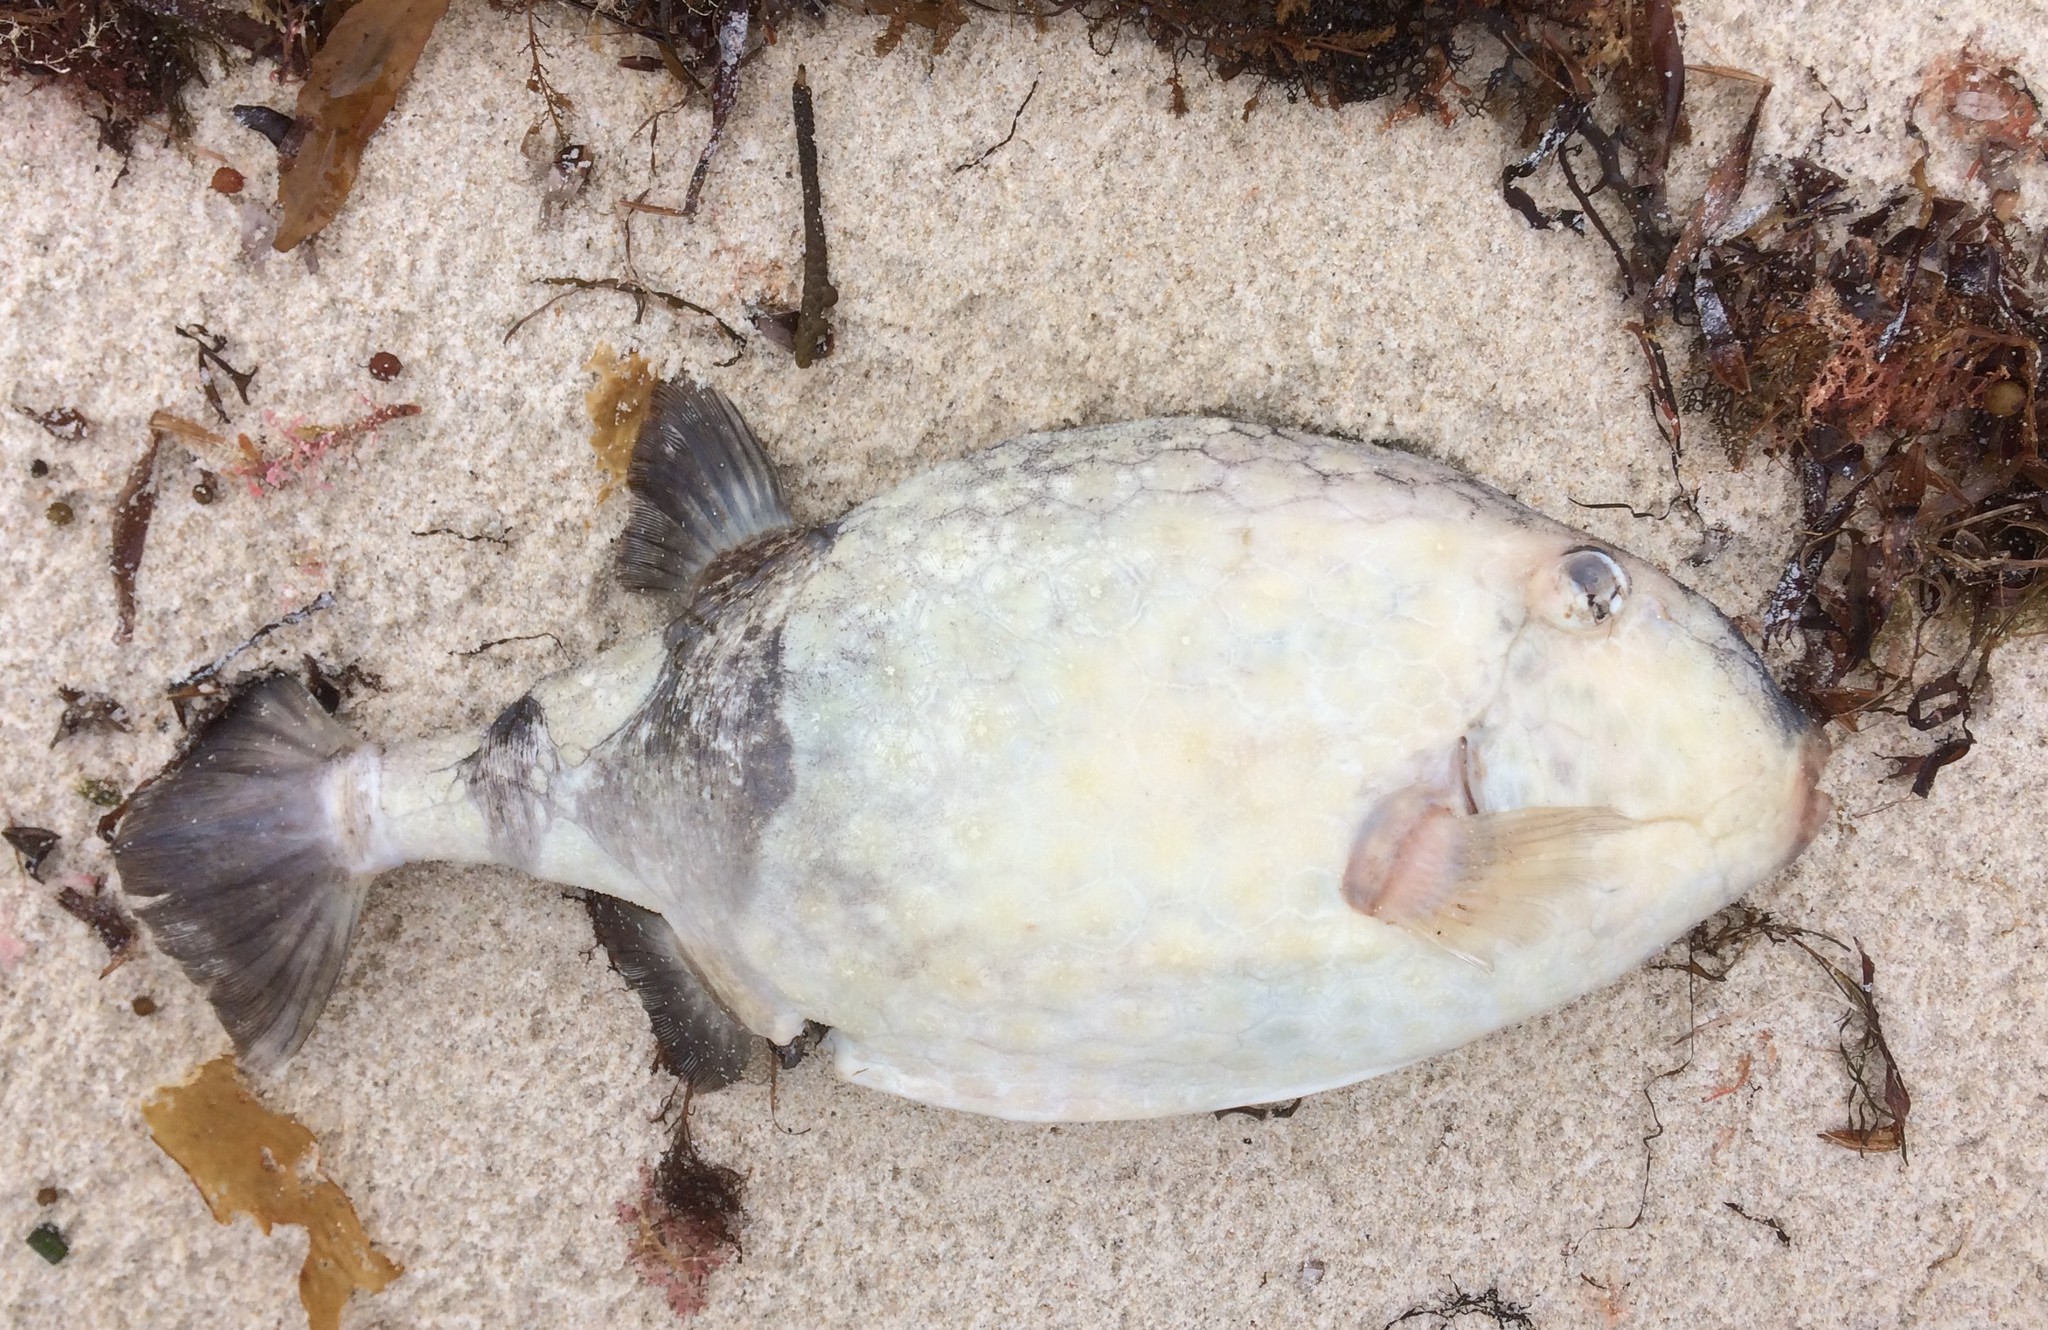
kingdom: Animalia
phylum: Chordata
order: Tetraodontiformes
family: Aracanidae
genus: Anoplocapros
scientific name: Anoplocapros amygdaloides
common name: Blue boxfish
